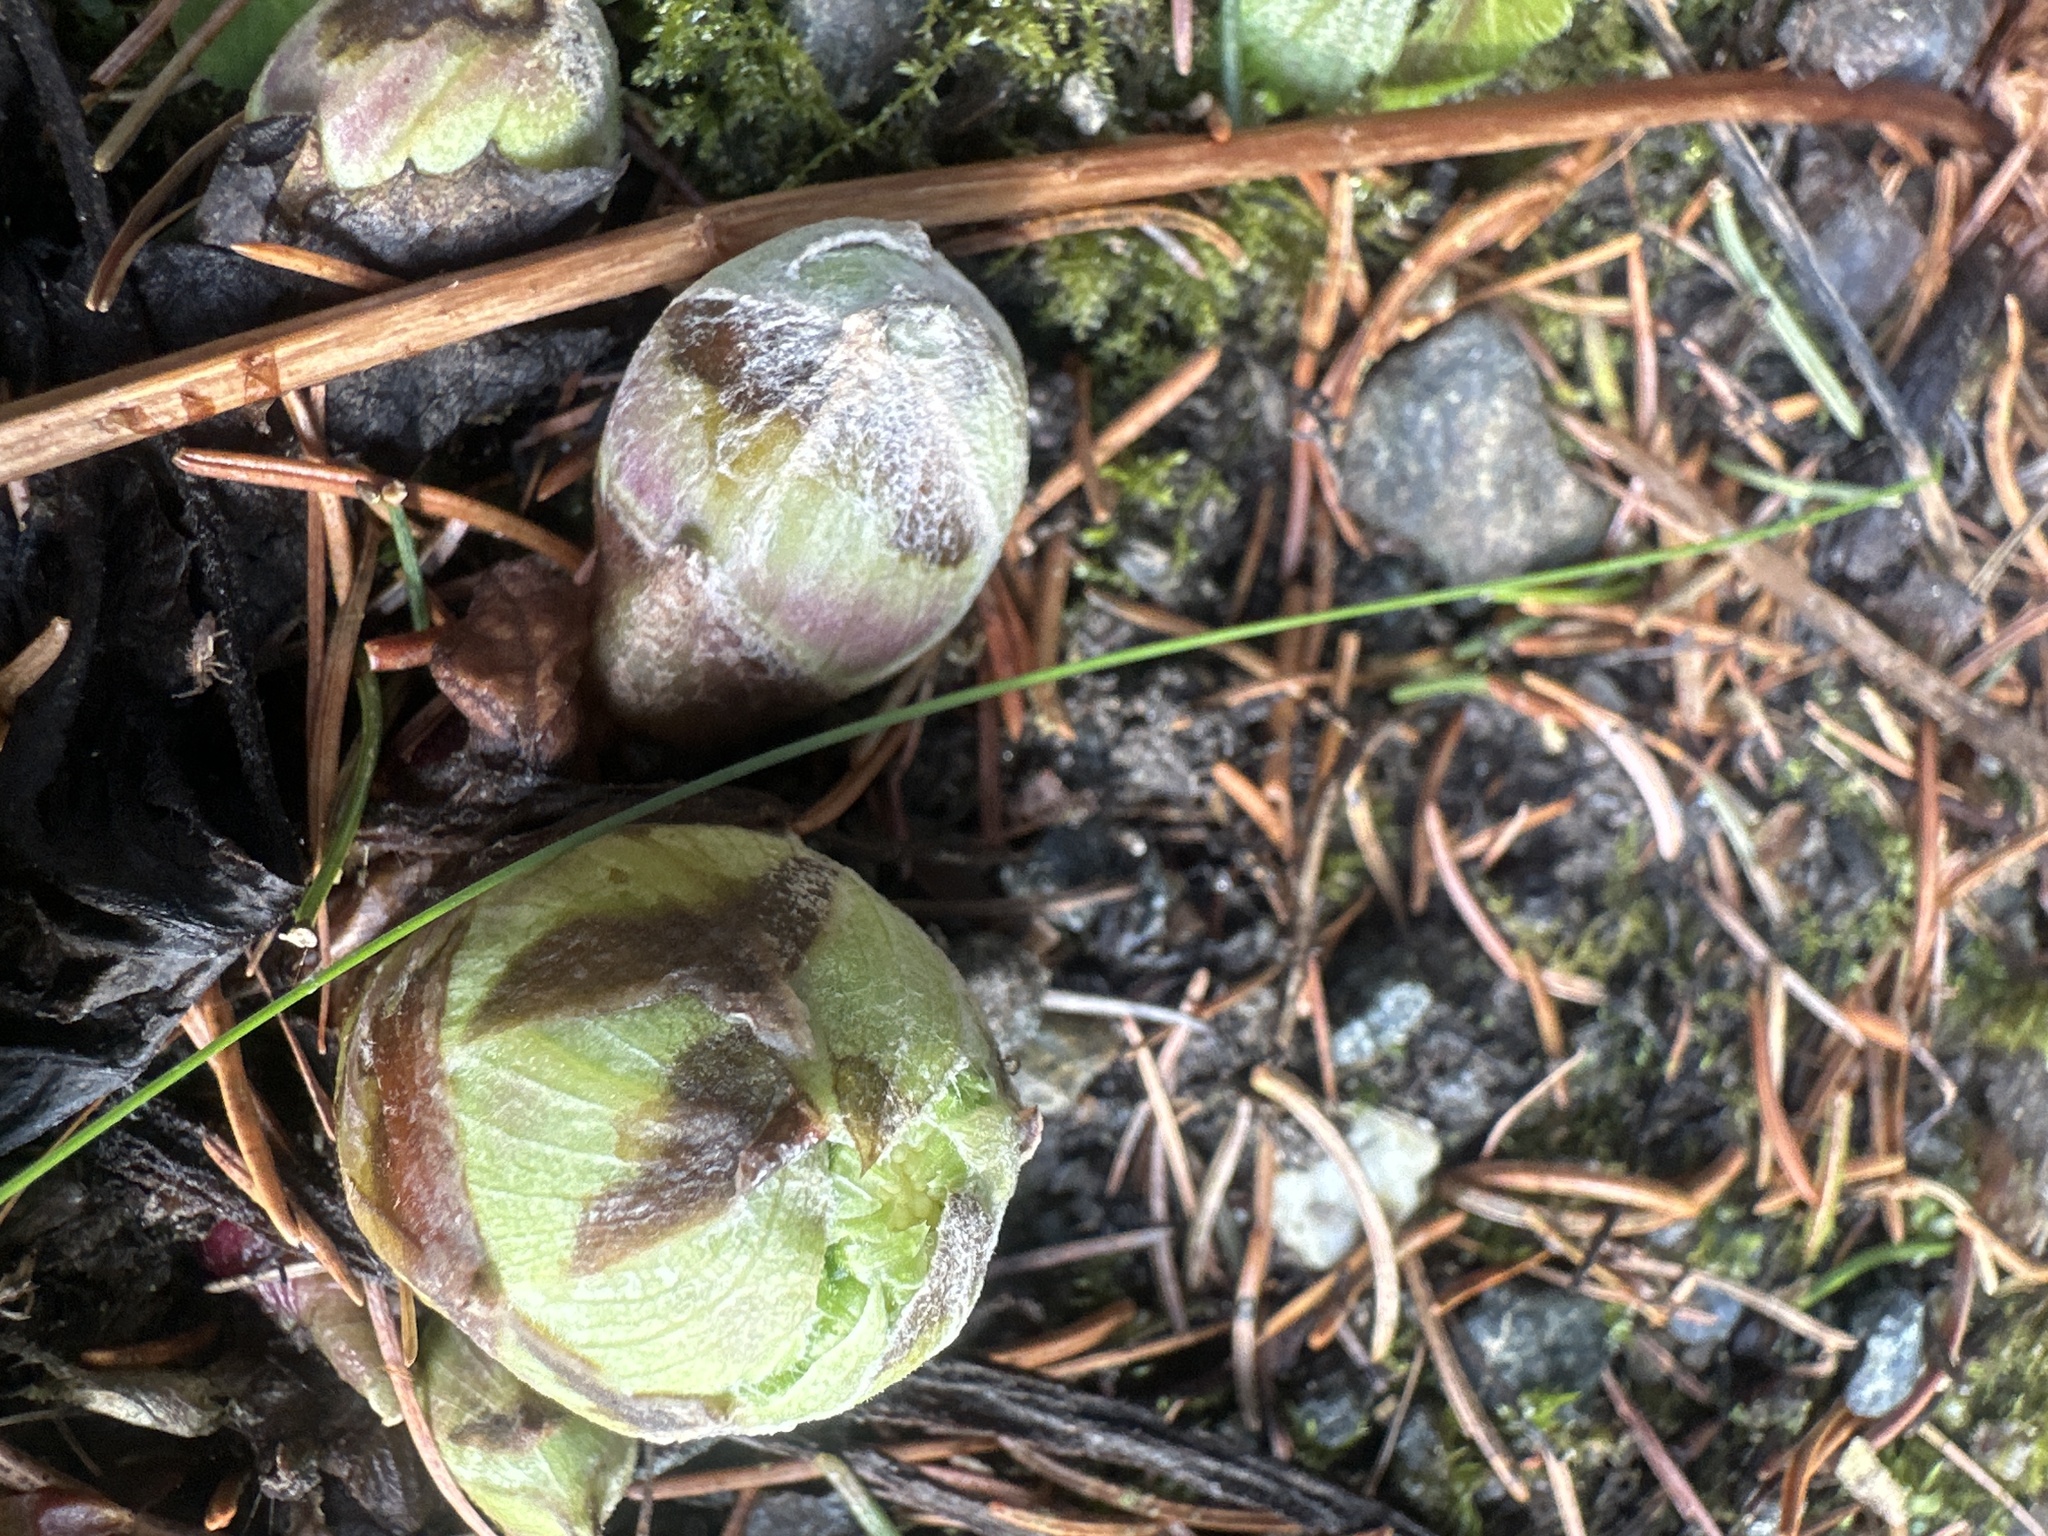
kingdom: Plantae
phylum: Tracheophyta
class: Magnoliopsida
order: Asterales
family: Asteraceae
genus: Petasites
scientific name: Petasites albus
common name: White butterbur
